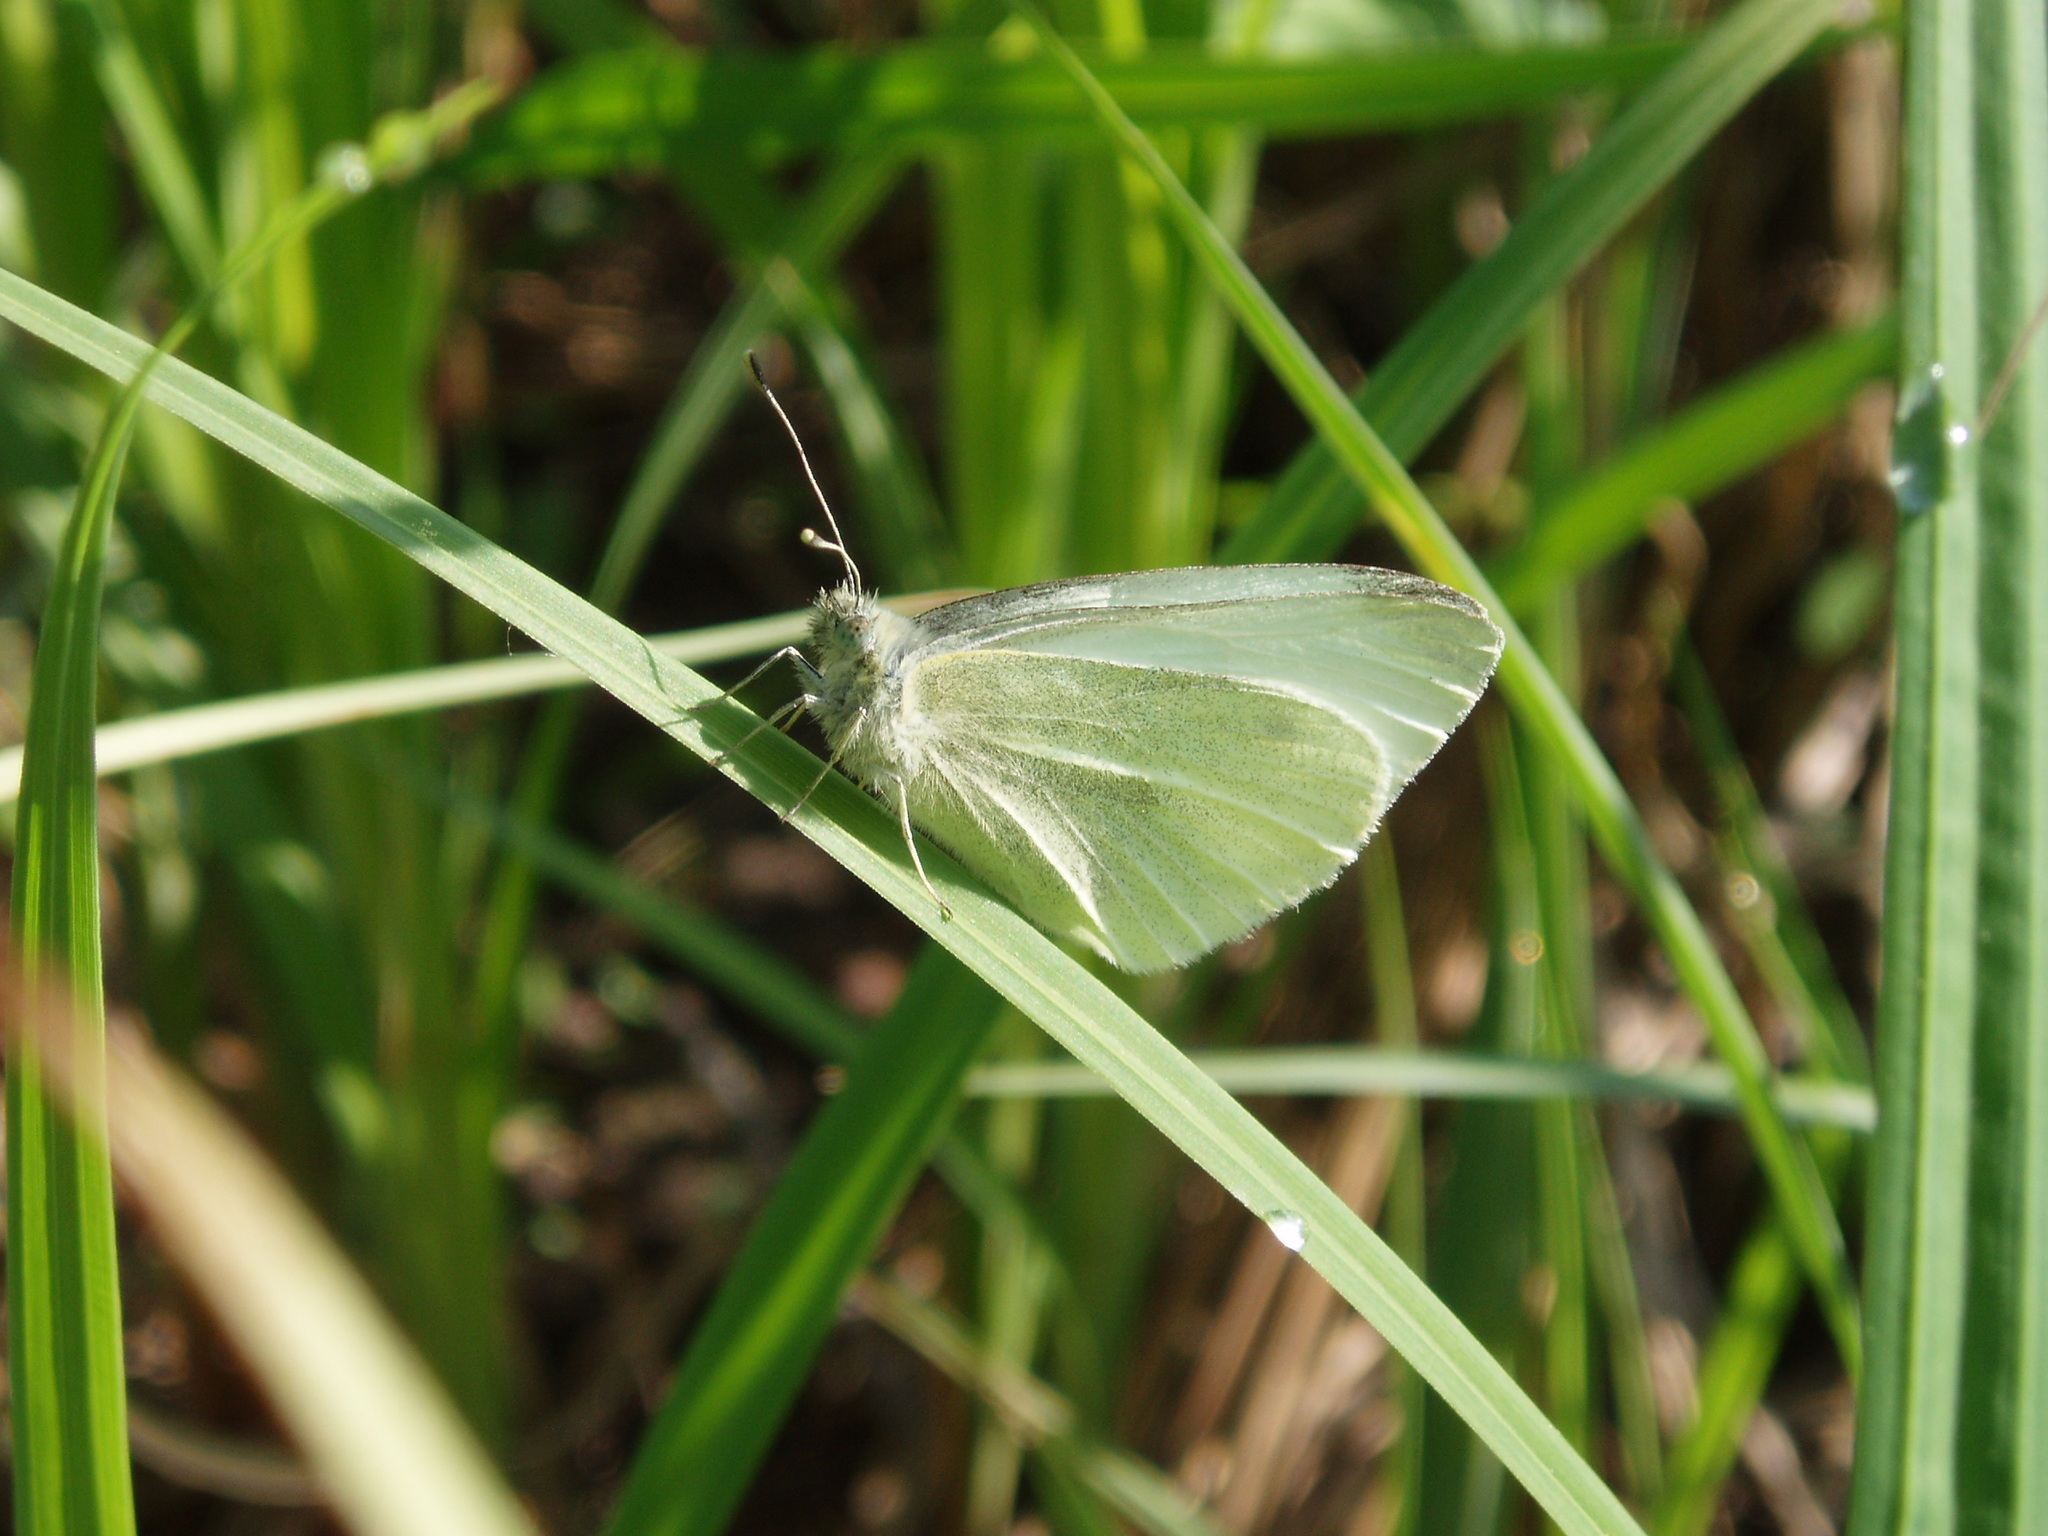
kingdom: Animalia
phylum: Arthropoda
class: Insecta
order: Lepidoptera
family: Pieridae
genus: Pieris
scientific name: Pieris rapae
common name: Small white
